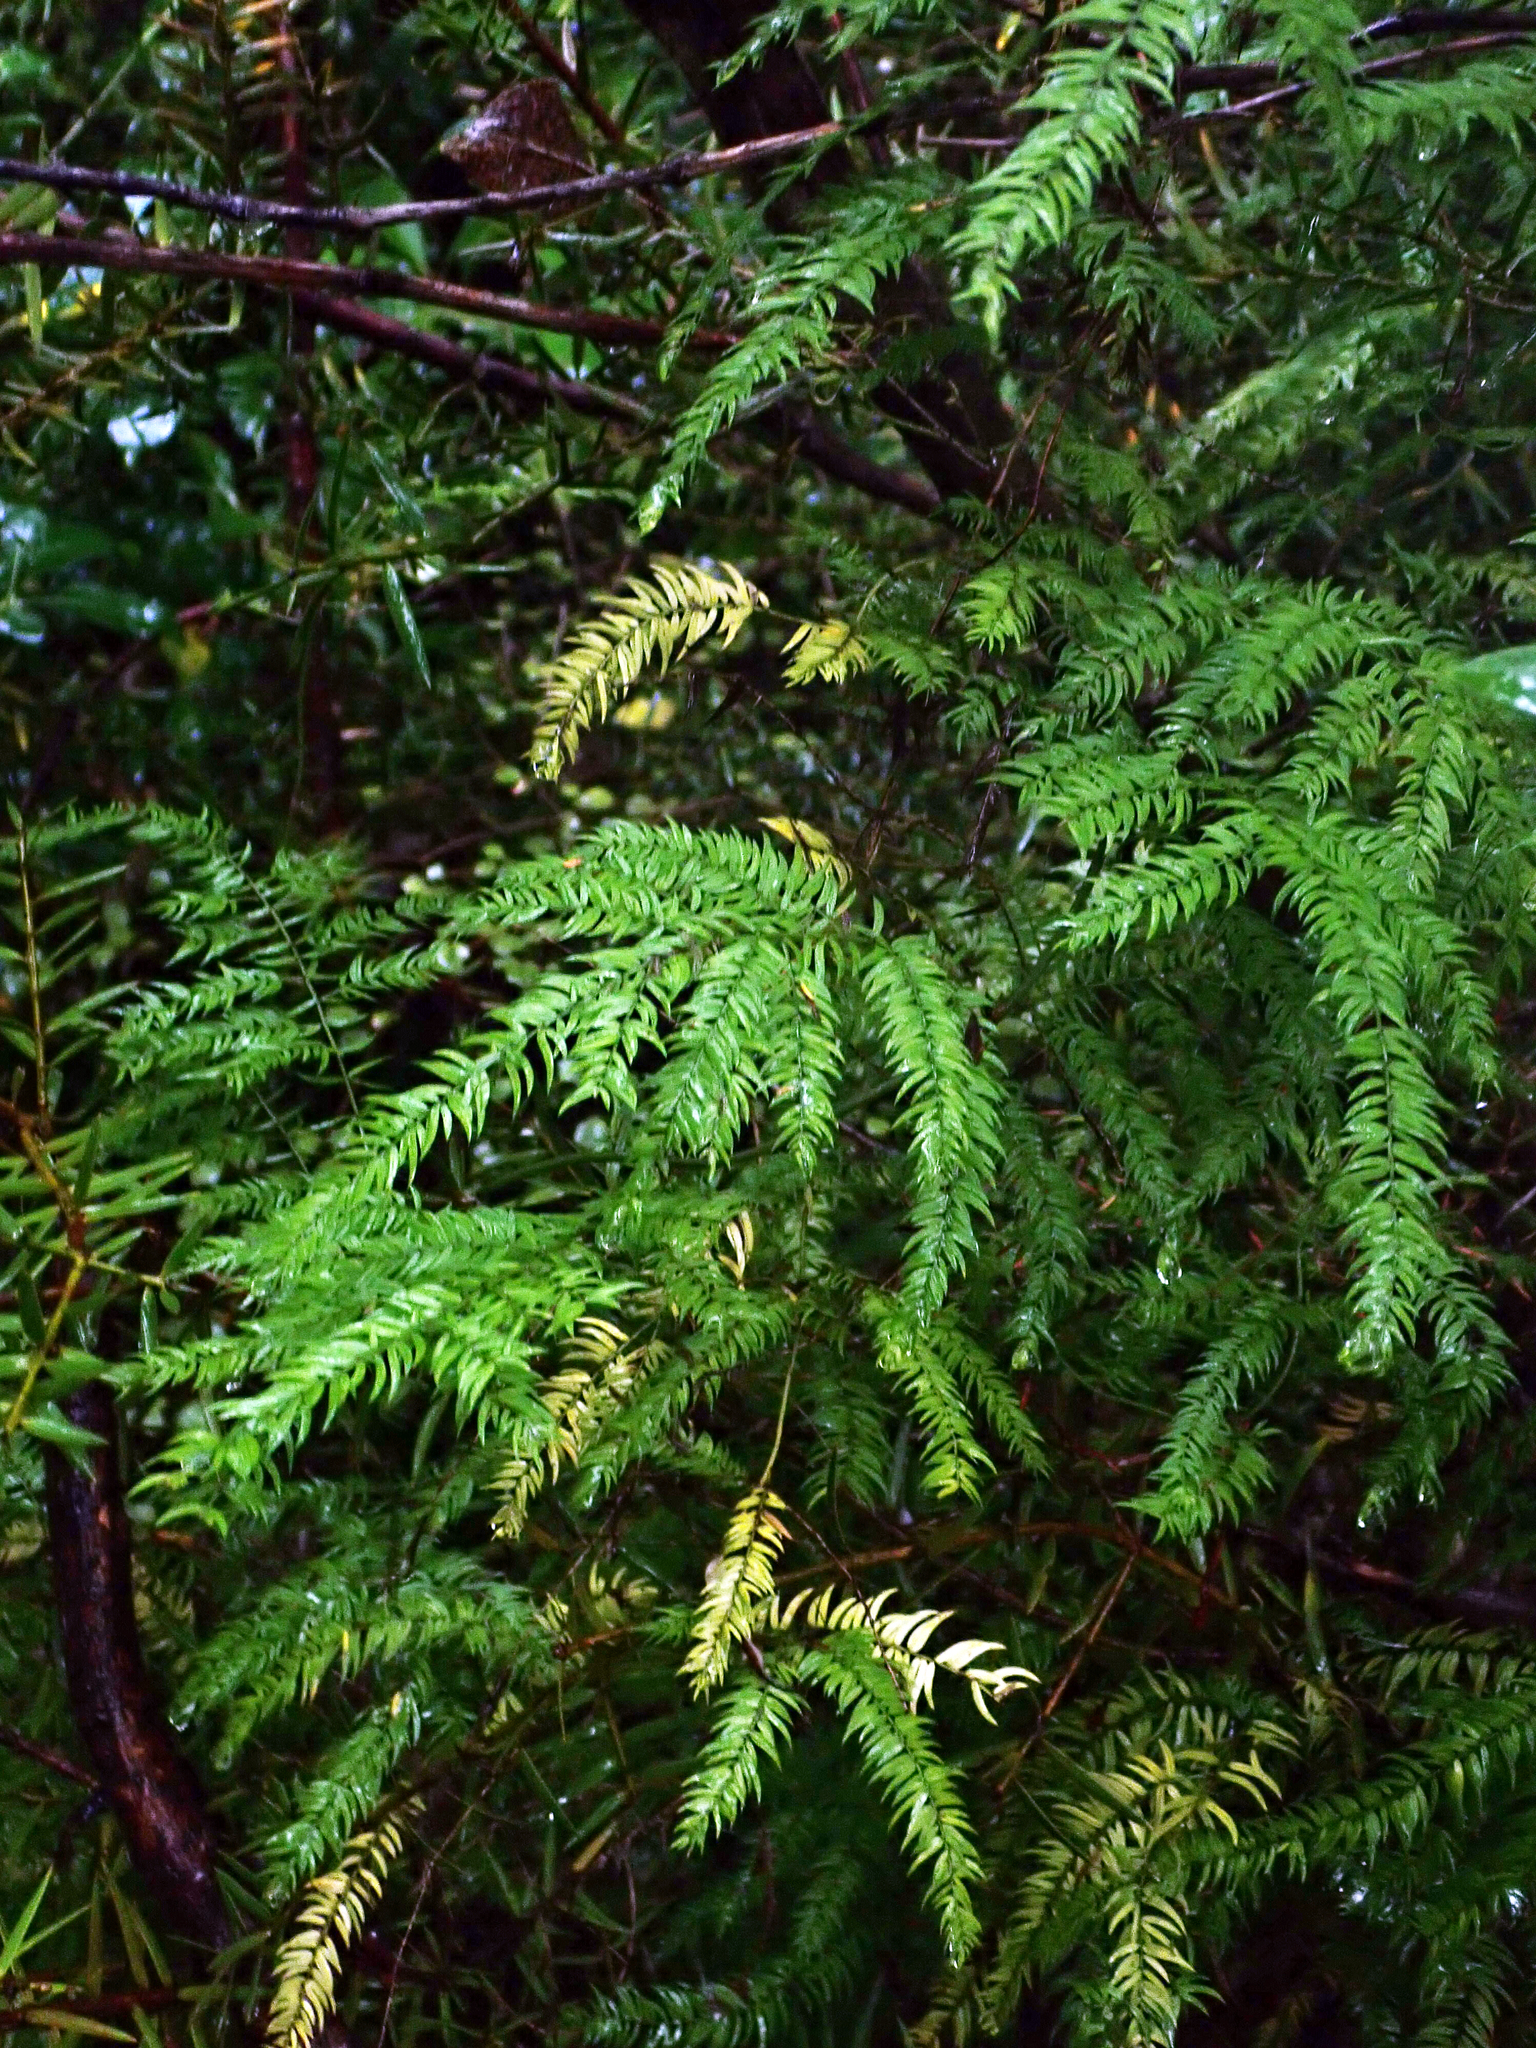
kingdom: Plantae
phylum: Tracheophyta
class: Liliopsida
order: Asparagales
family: Asparagaceae
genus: Asparagus
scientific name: Asparagus scandens
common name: Asparagus-fern
